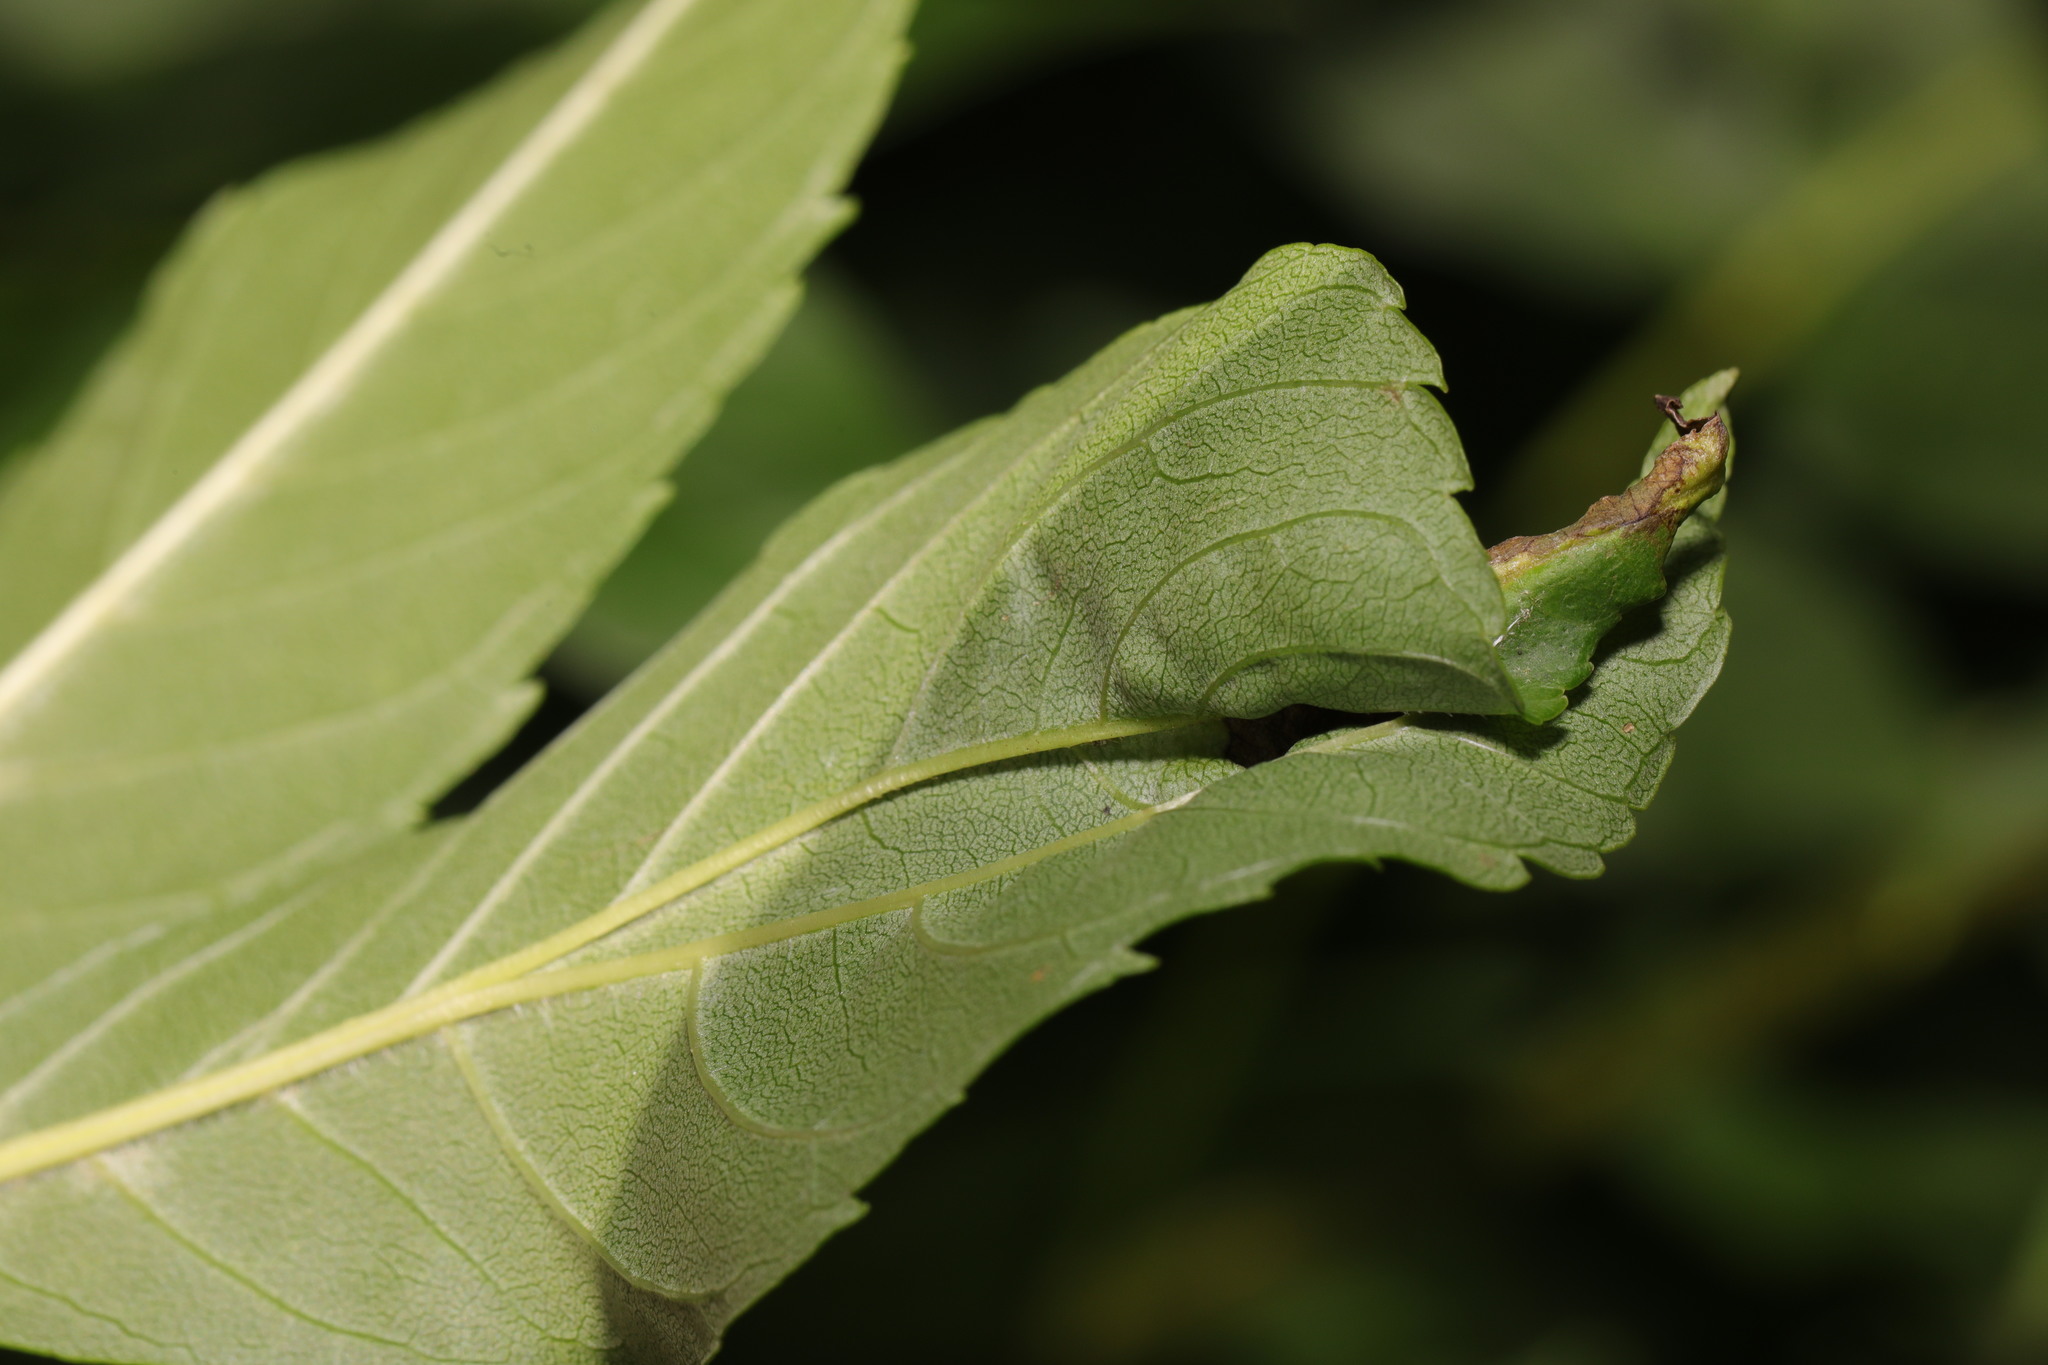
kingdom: Animalia
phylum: Arthropoda
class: Insecta
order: Hemiptera
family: Liviidae
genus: Psyllopsis
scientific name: Psyllopsis fraxini
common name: Jumping plant louse
